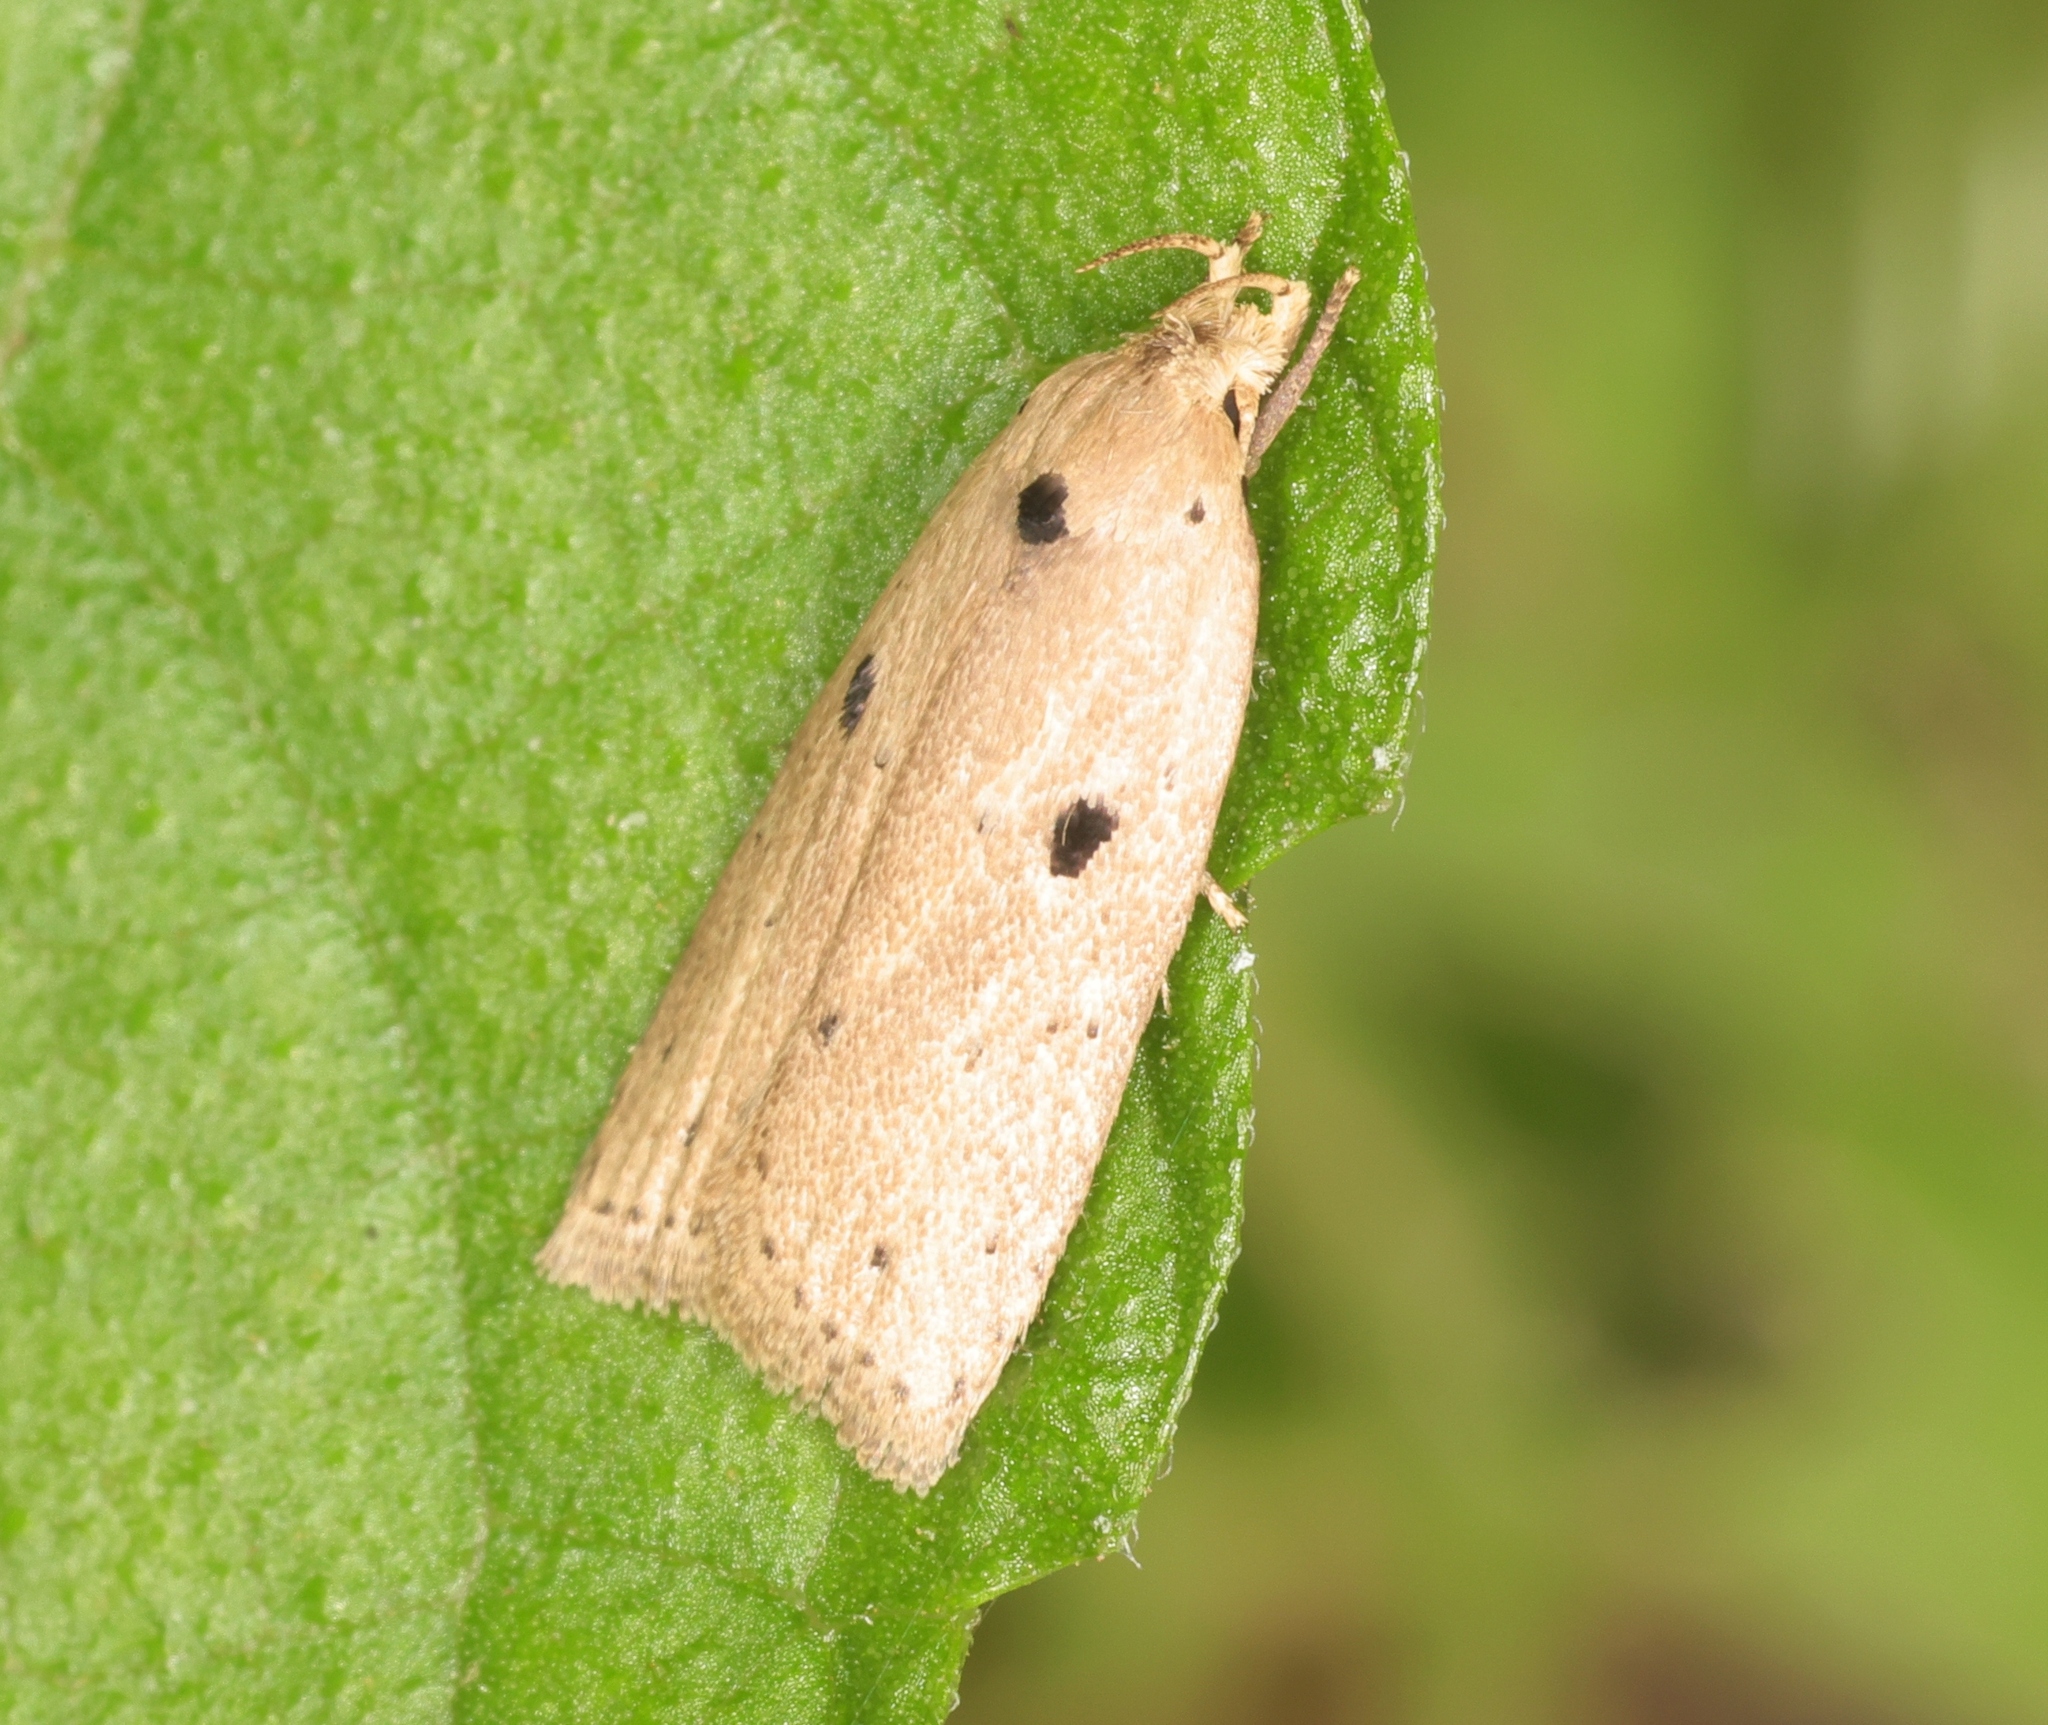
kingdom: Animalia
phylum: Arthropoda
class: Insecta
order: Lepidoptera
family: Peleopodidae
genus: Odites
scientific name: Odites ricinella
